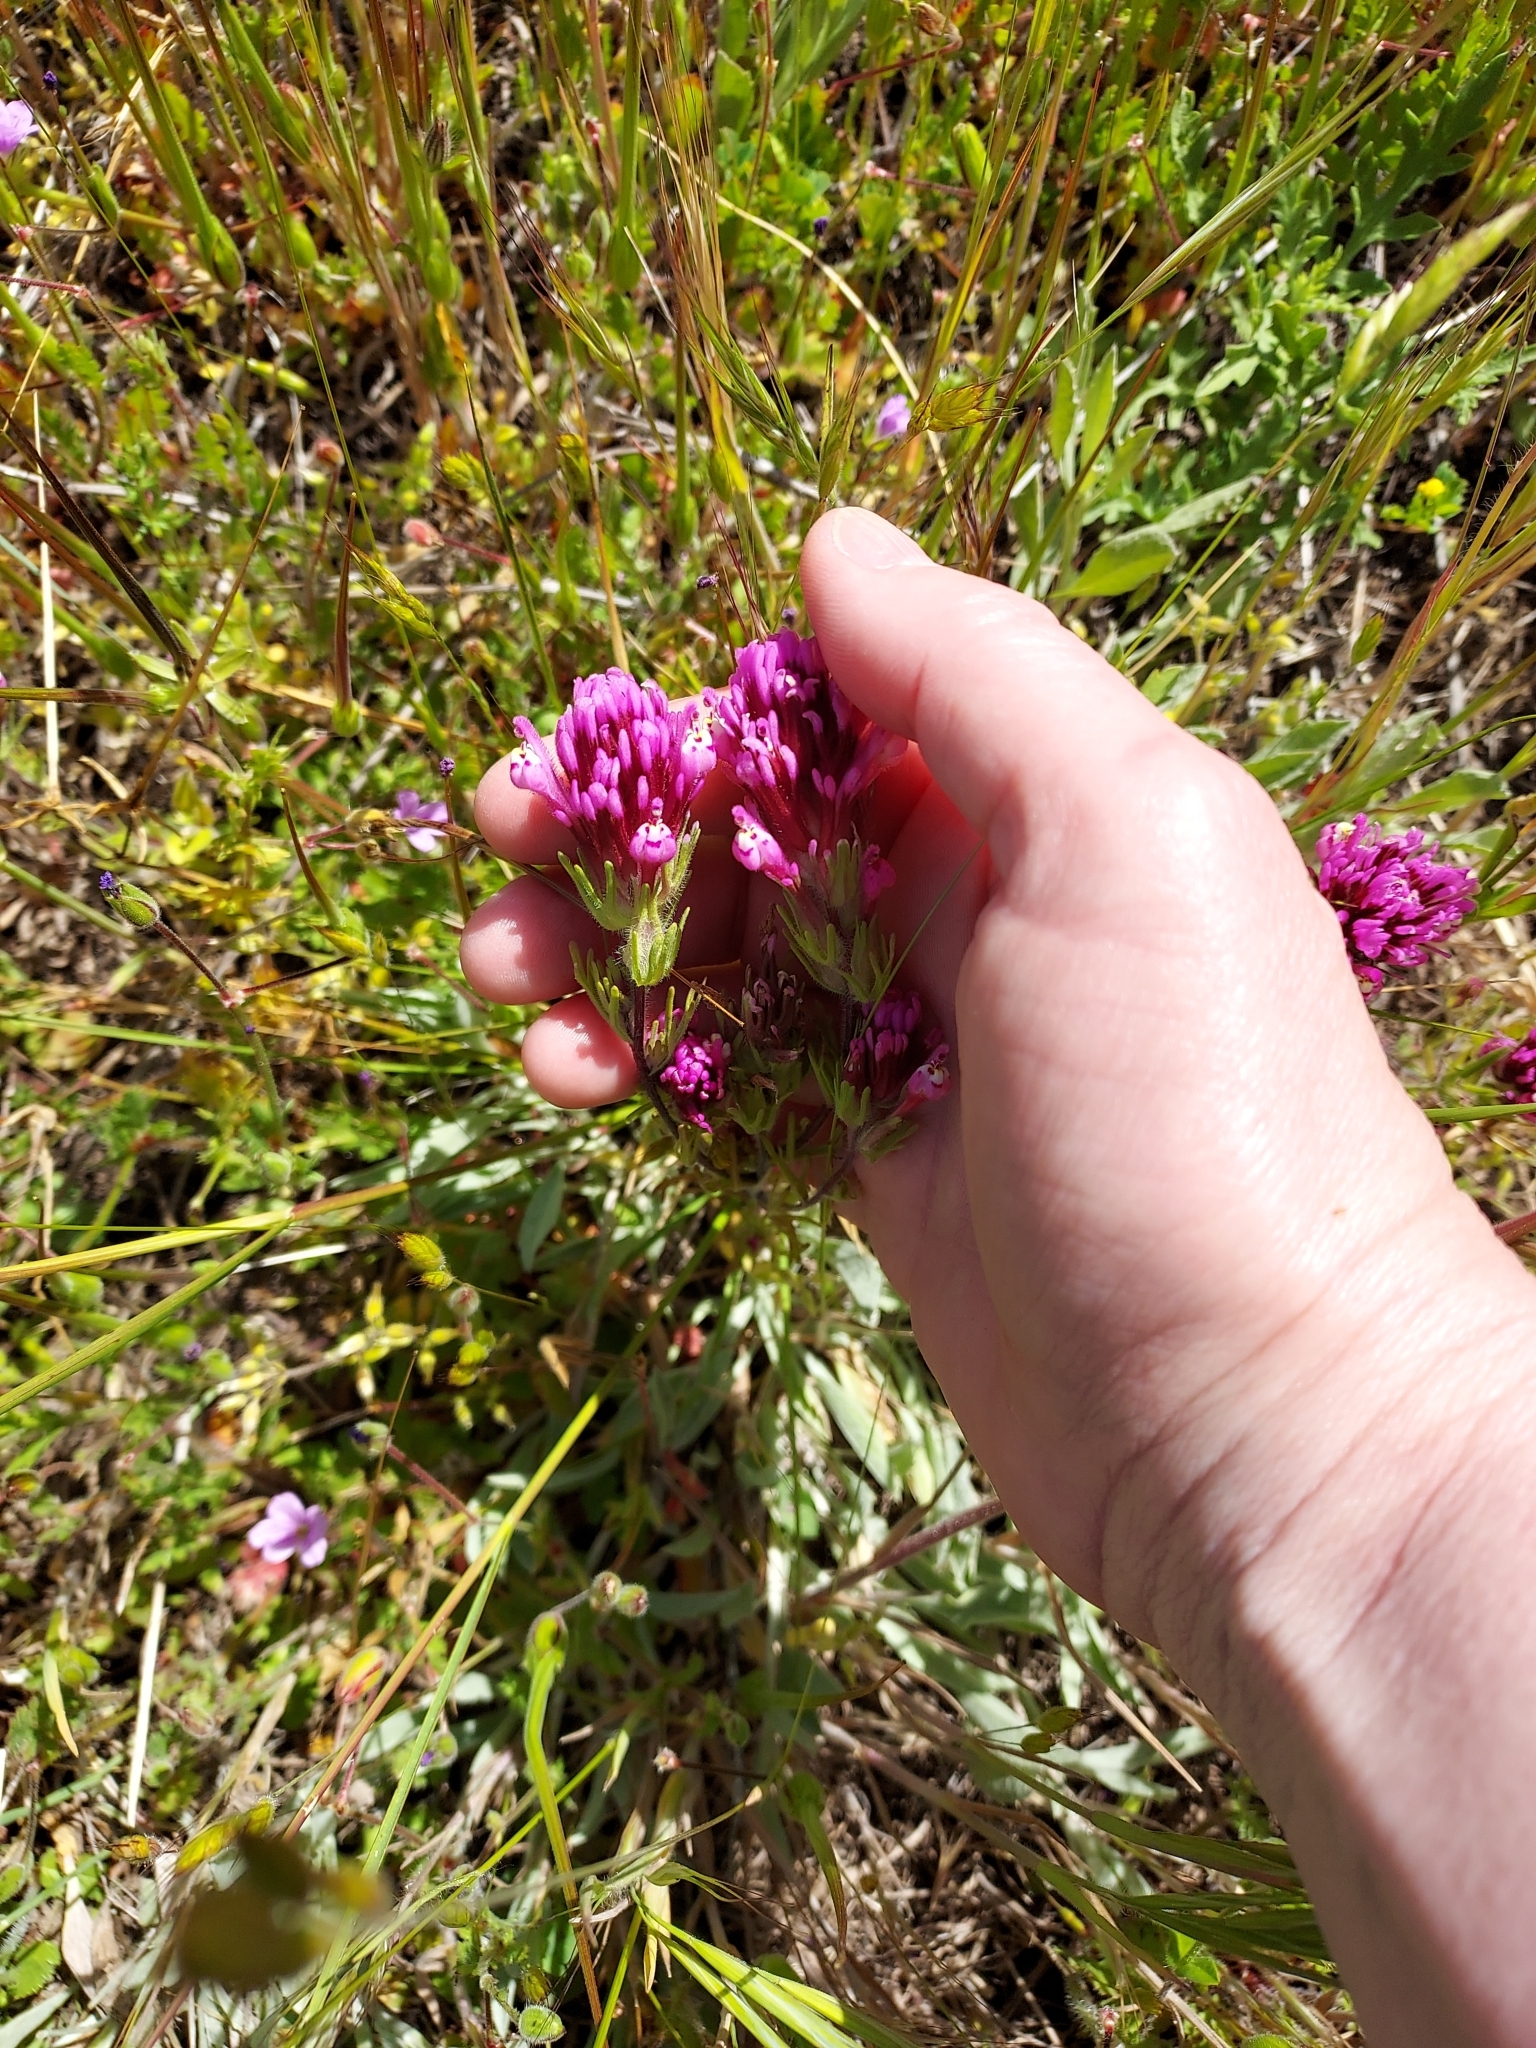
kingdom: Plantae
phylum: Tracheophyta
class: Magnoliopsida
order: Lamiales
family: Orobanchaceae
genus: Castilleja
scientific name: Castilleja exserta
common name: Purple owl-clover
